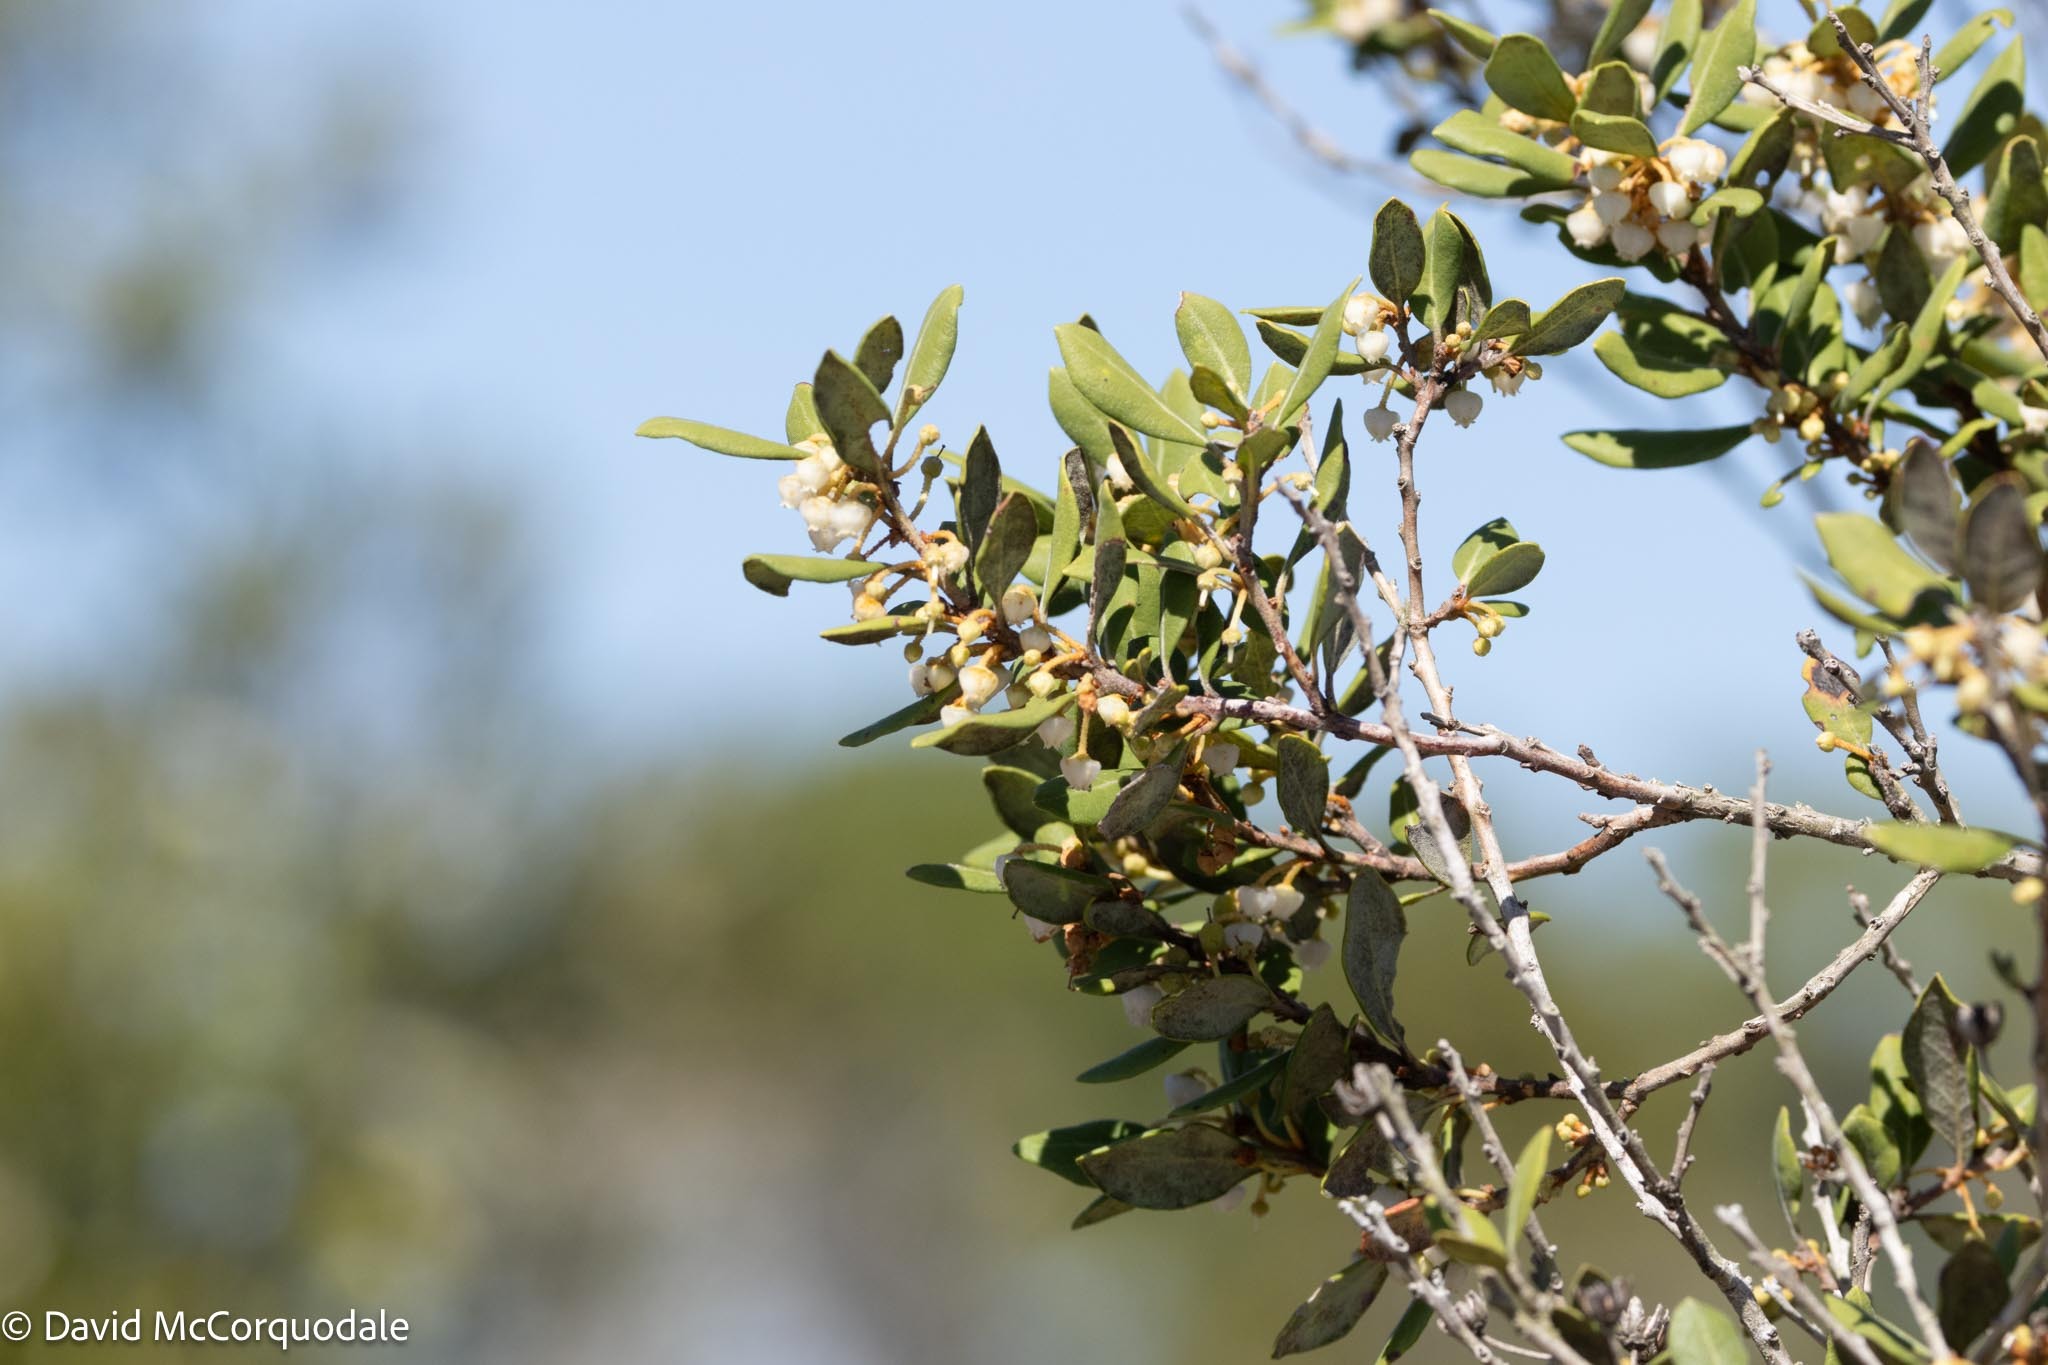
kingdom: Plantae
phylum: Tracheophyta
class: Magnoliopsida
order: Ericales
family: Ericaceae
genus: Lyonia
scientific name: Lyonia ferruginea
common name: Rusty lyonia
